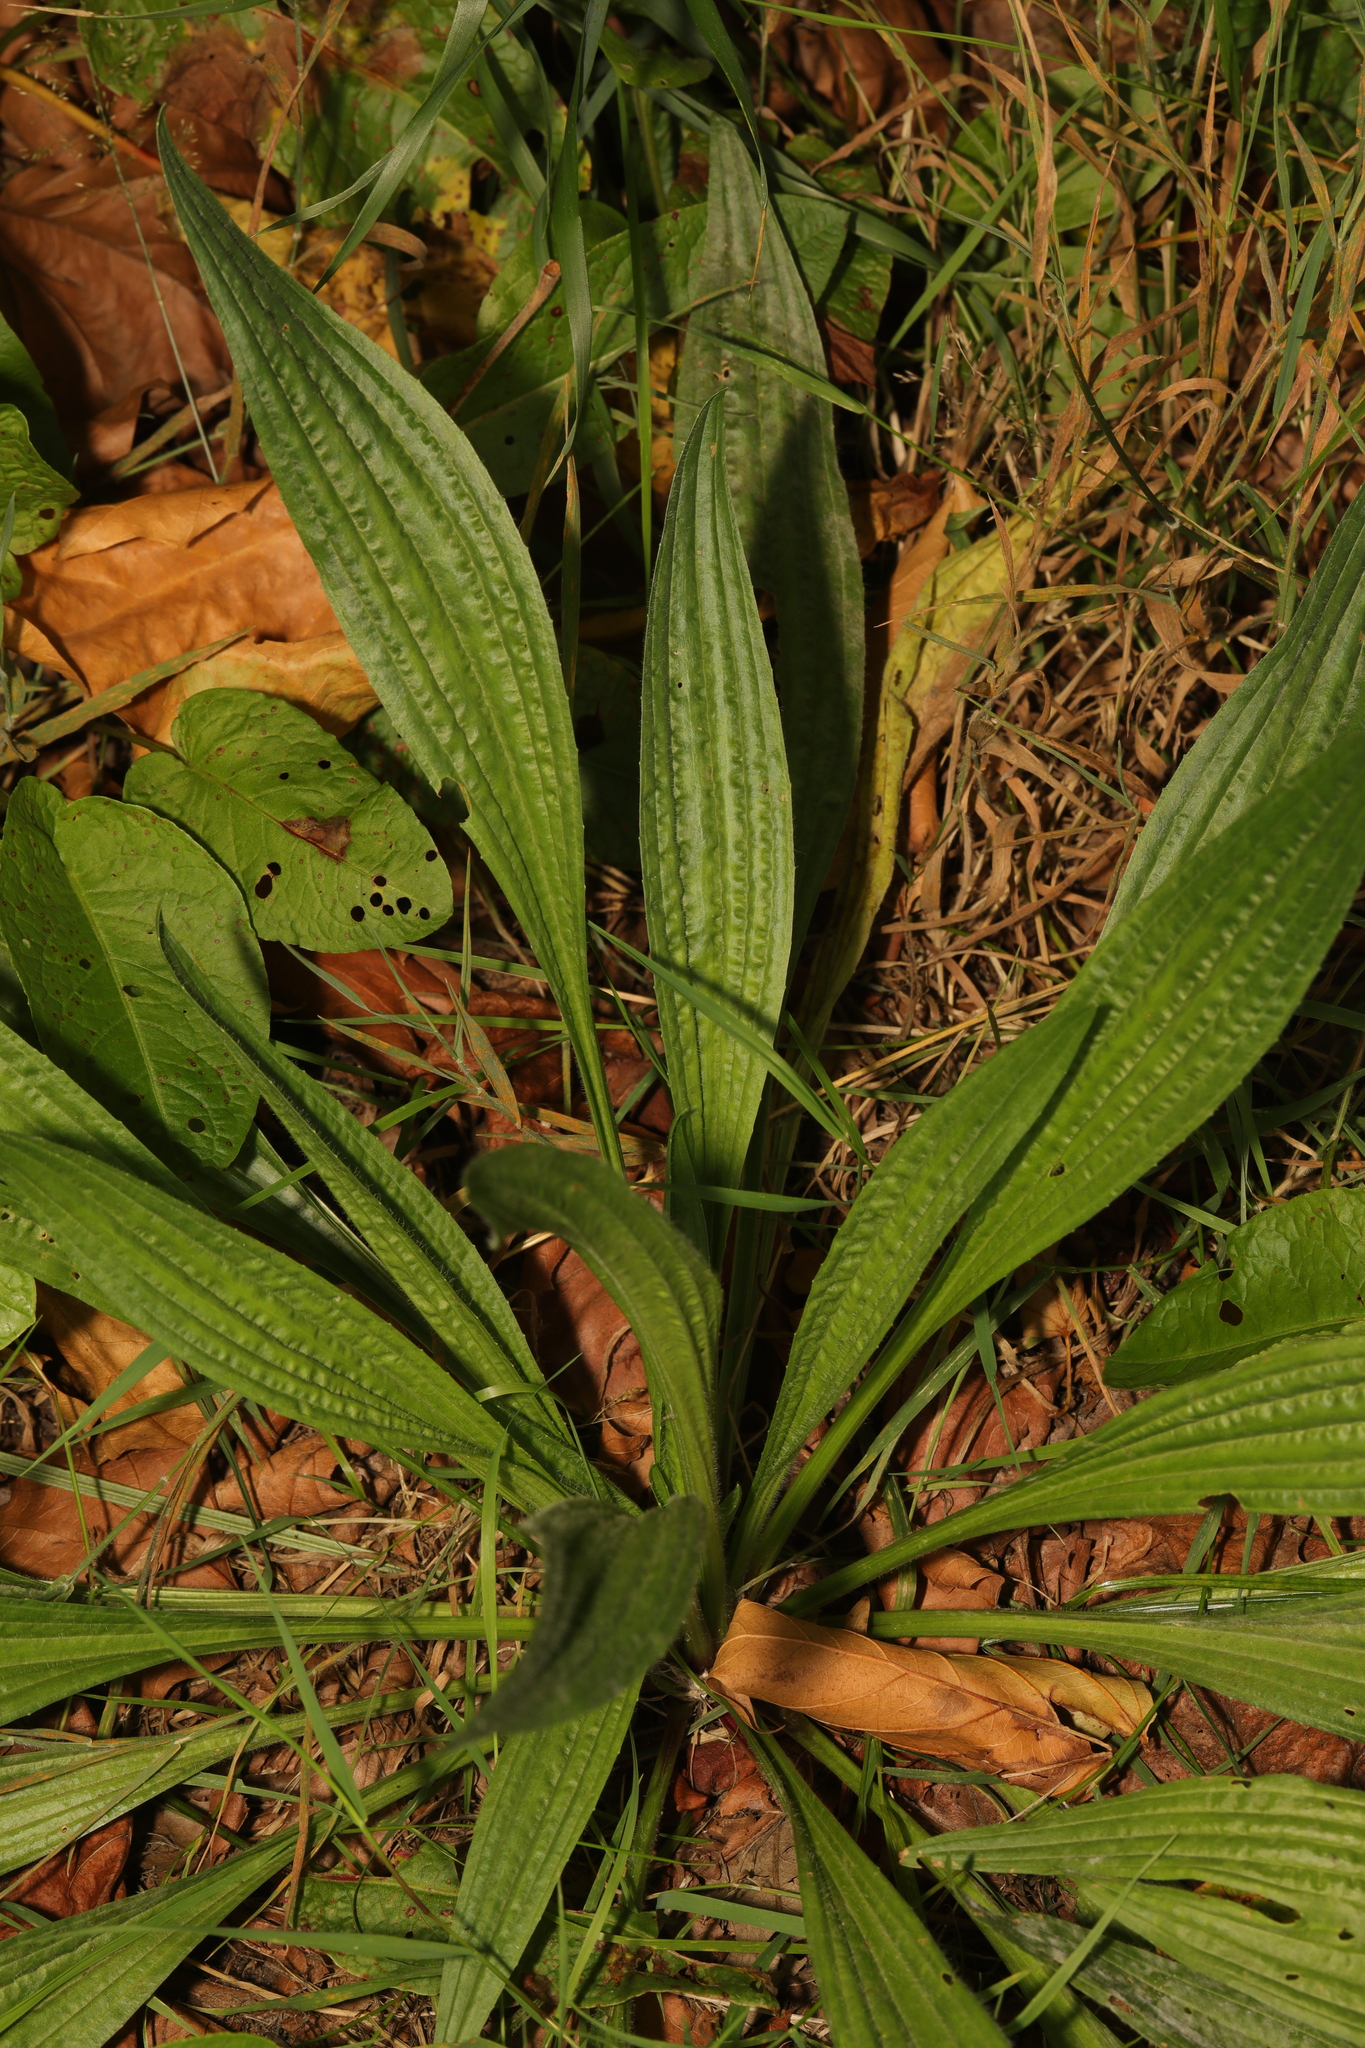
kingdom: Plantae
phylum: Tracheophyta
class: Magnoliopsida
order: Lamiales
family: Plantaginaceae
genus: Plantago
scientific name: Plantago lanceolata
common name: Ribwort plantain
